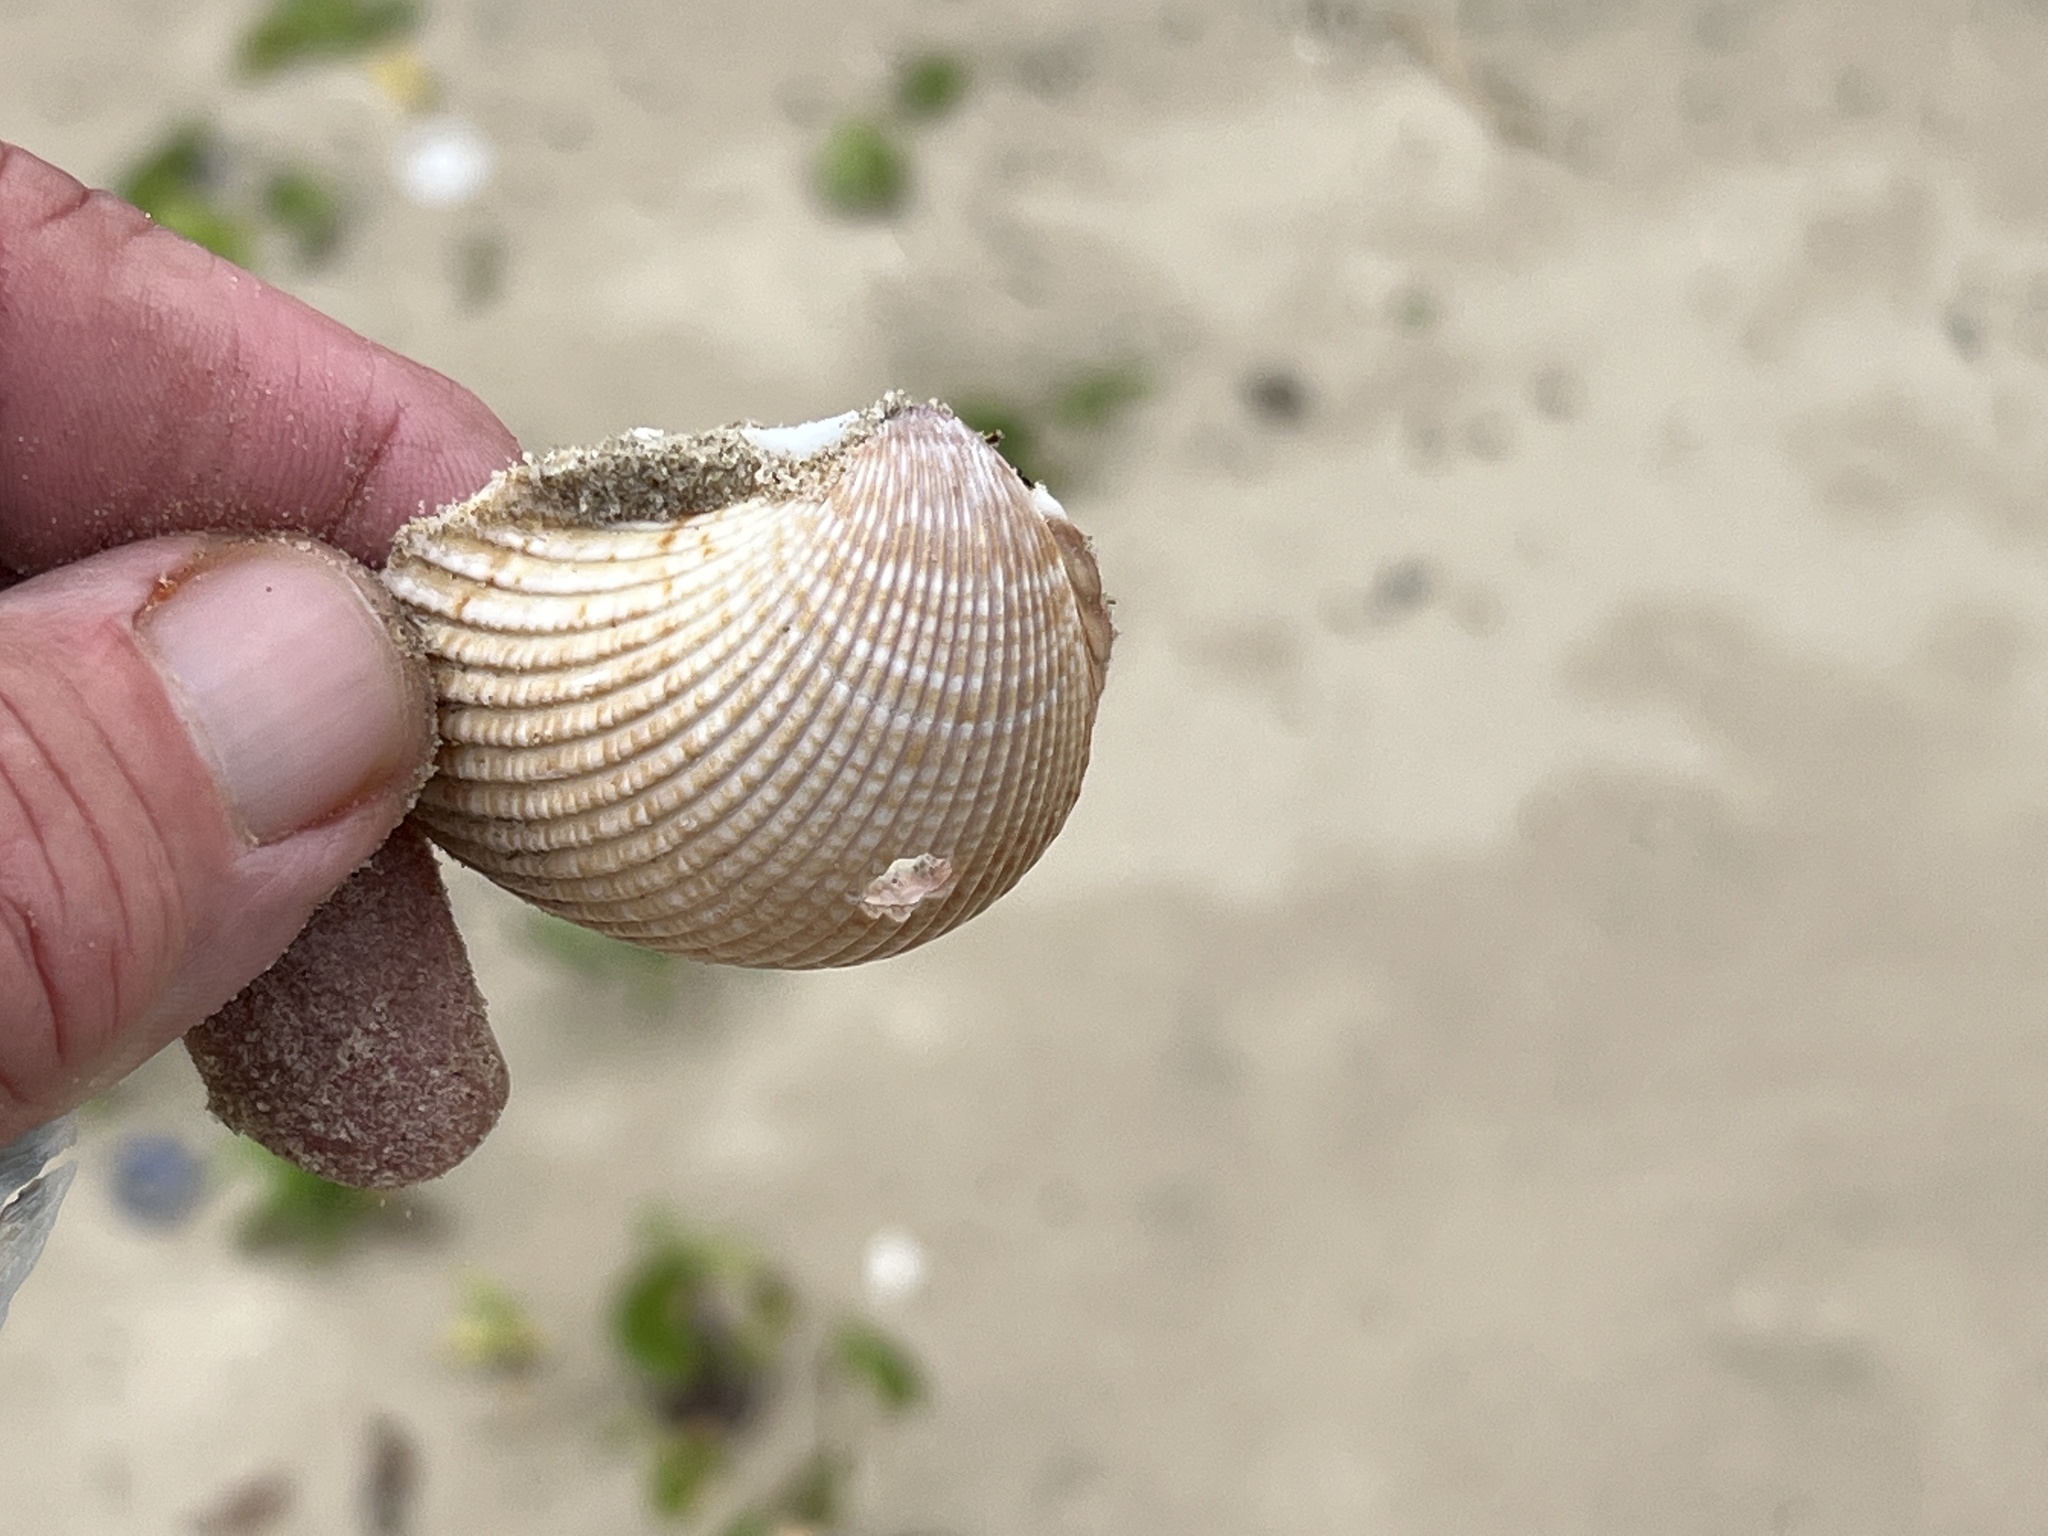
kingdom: Animalia
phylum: Mollusca
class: Bivalvia
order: Cardiida
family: Cardiidae
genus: Dinocardium
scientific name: Dinocardium robustum
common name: Atlantic giant cockle
